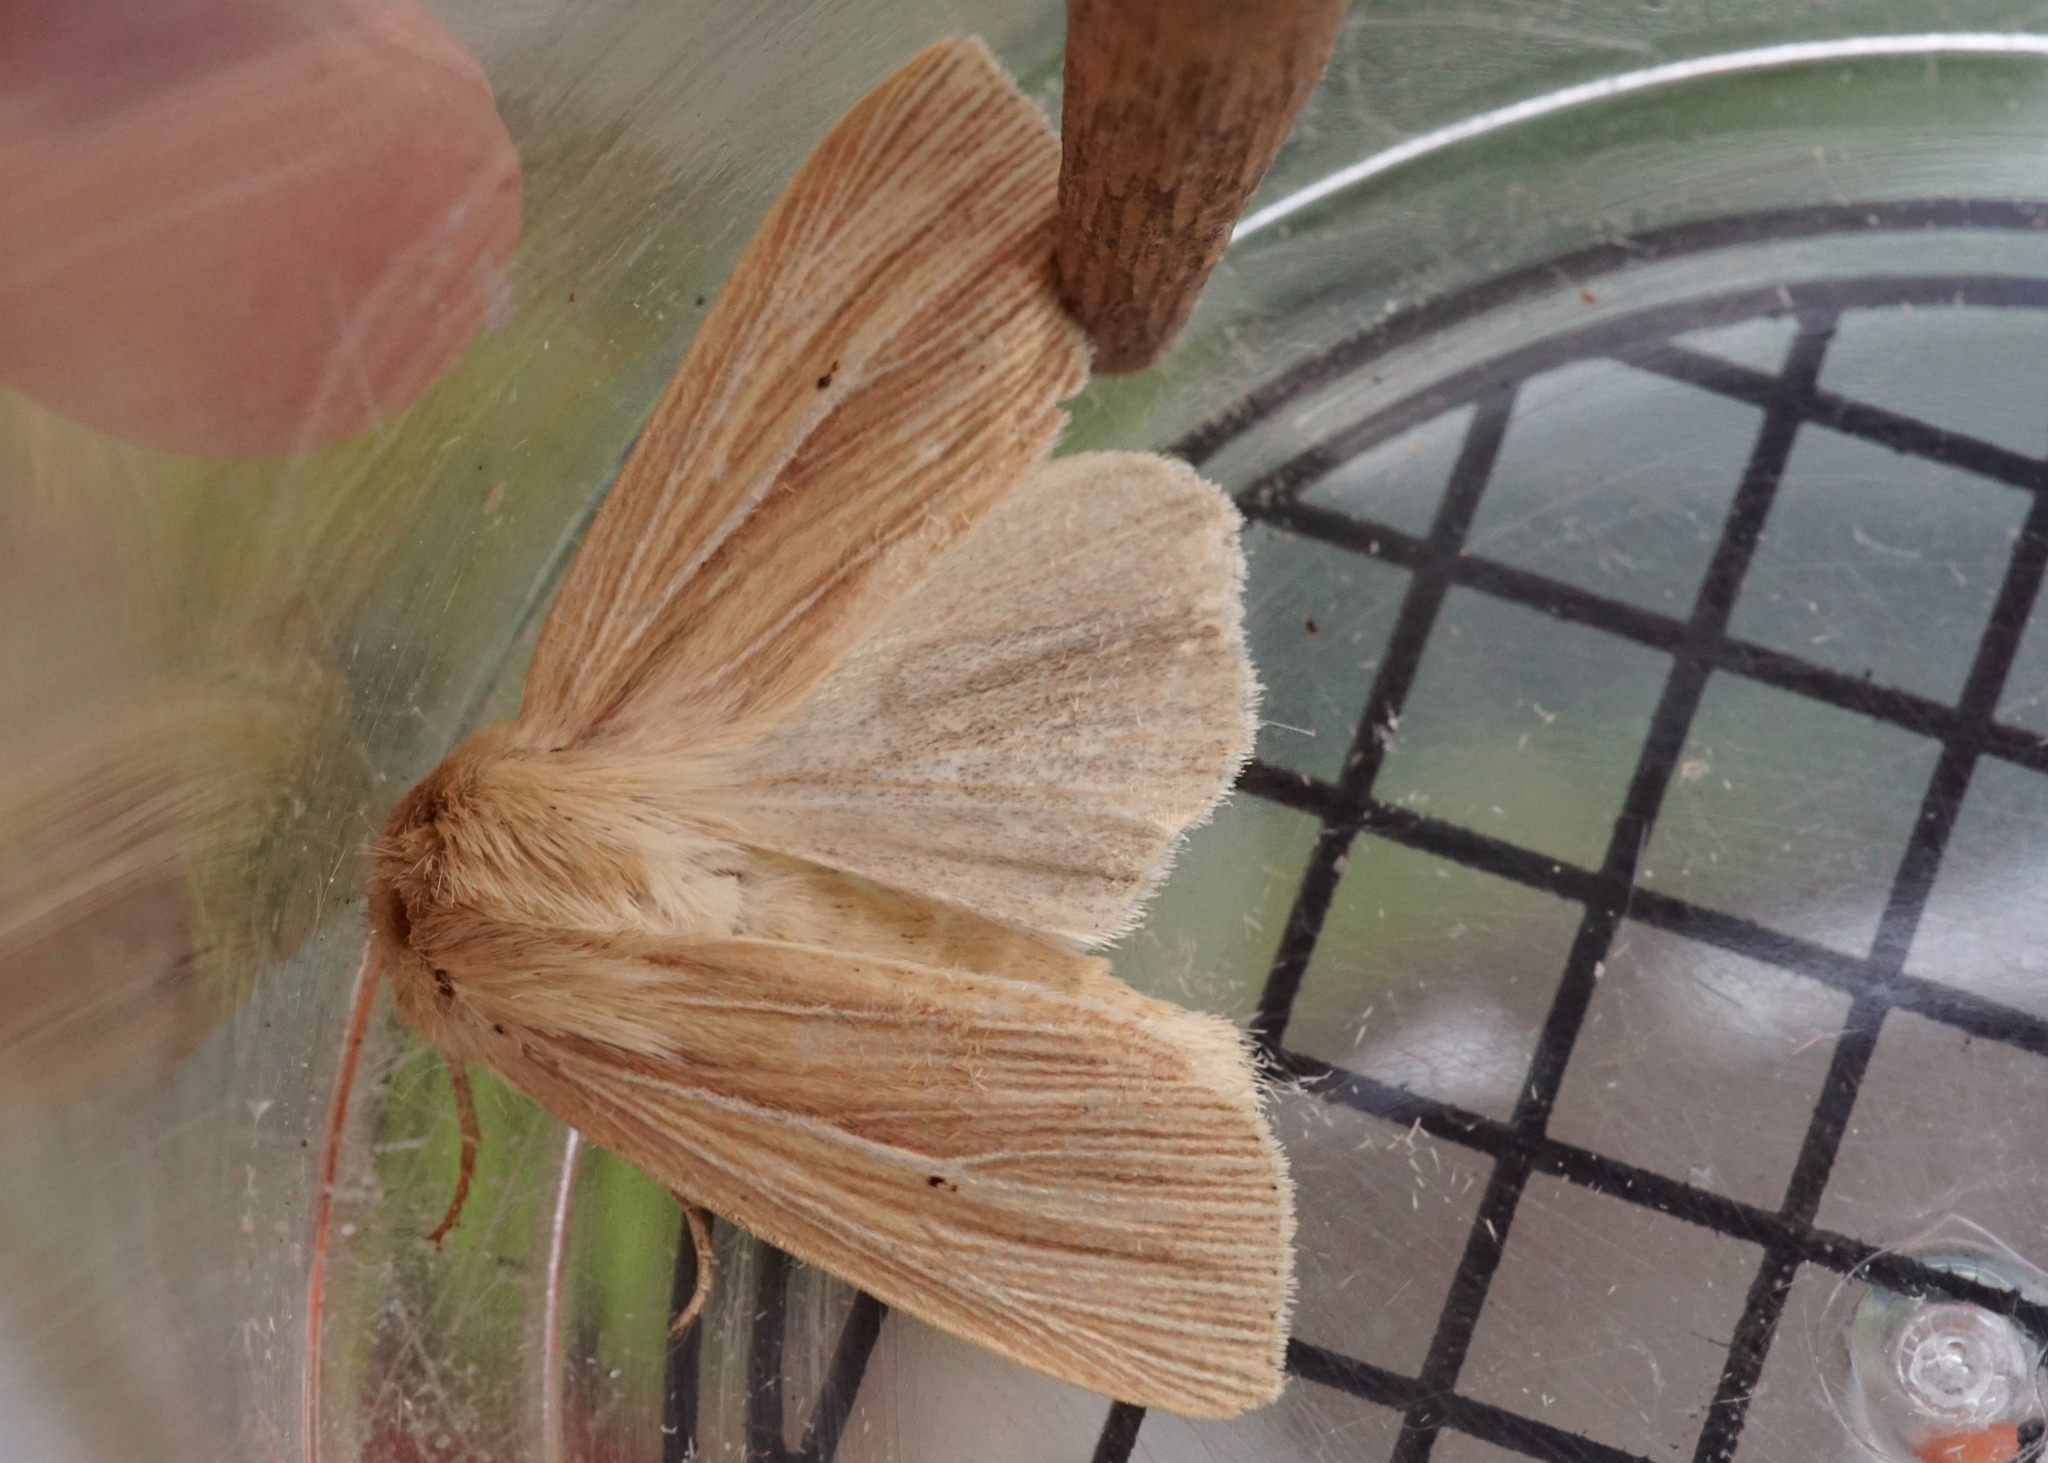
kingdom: Animalia
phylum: Arthropoda
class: Insecta
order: Lepidoptera
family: Noctuidae
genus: Mythimna
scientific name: Mythimna pallens
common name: Common wainscot
